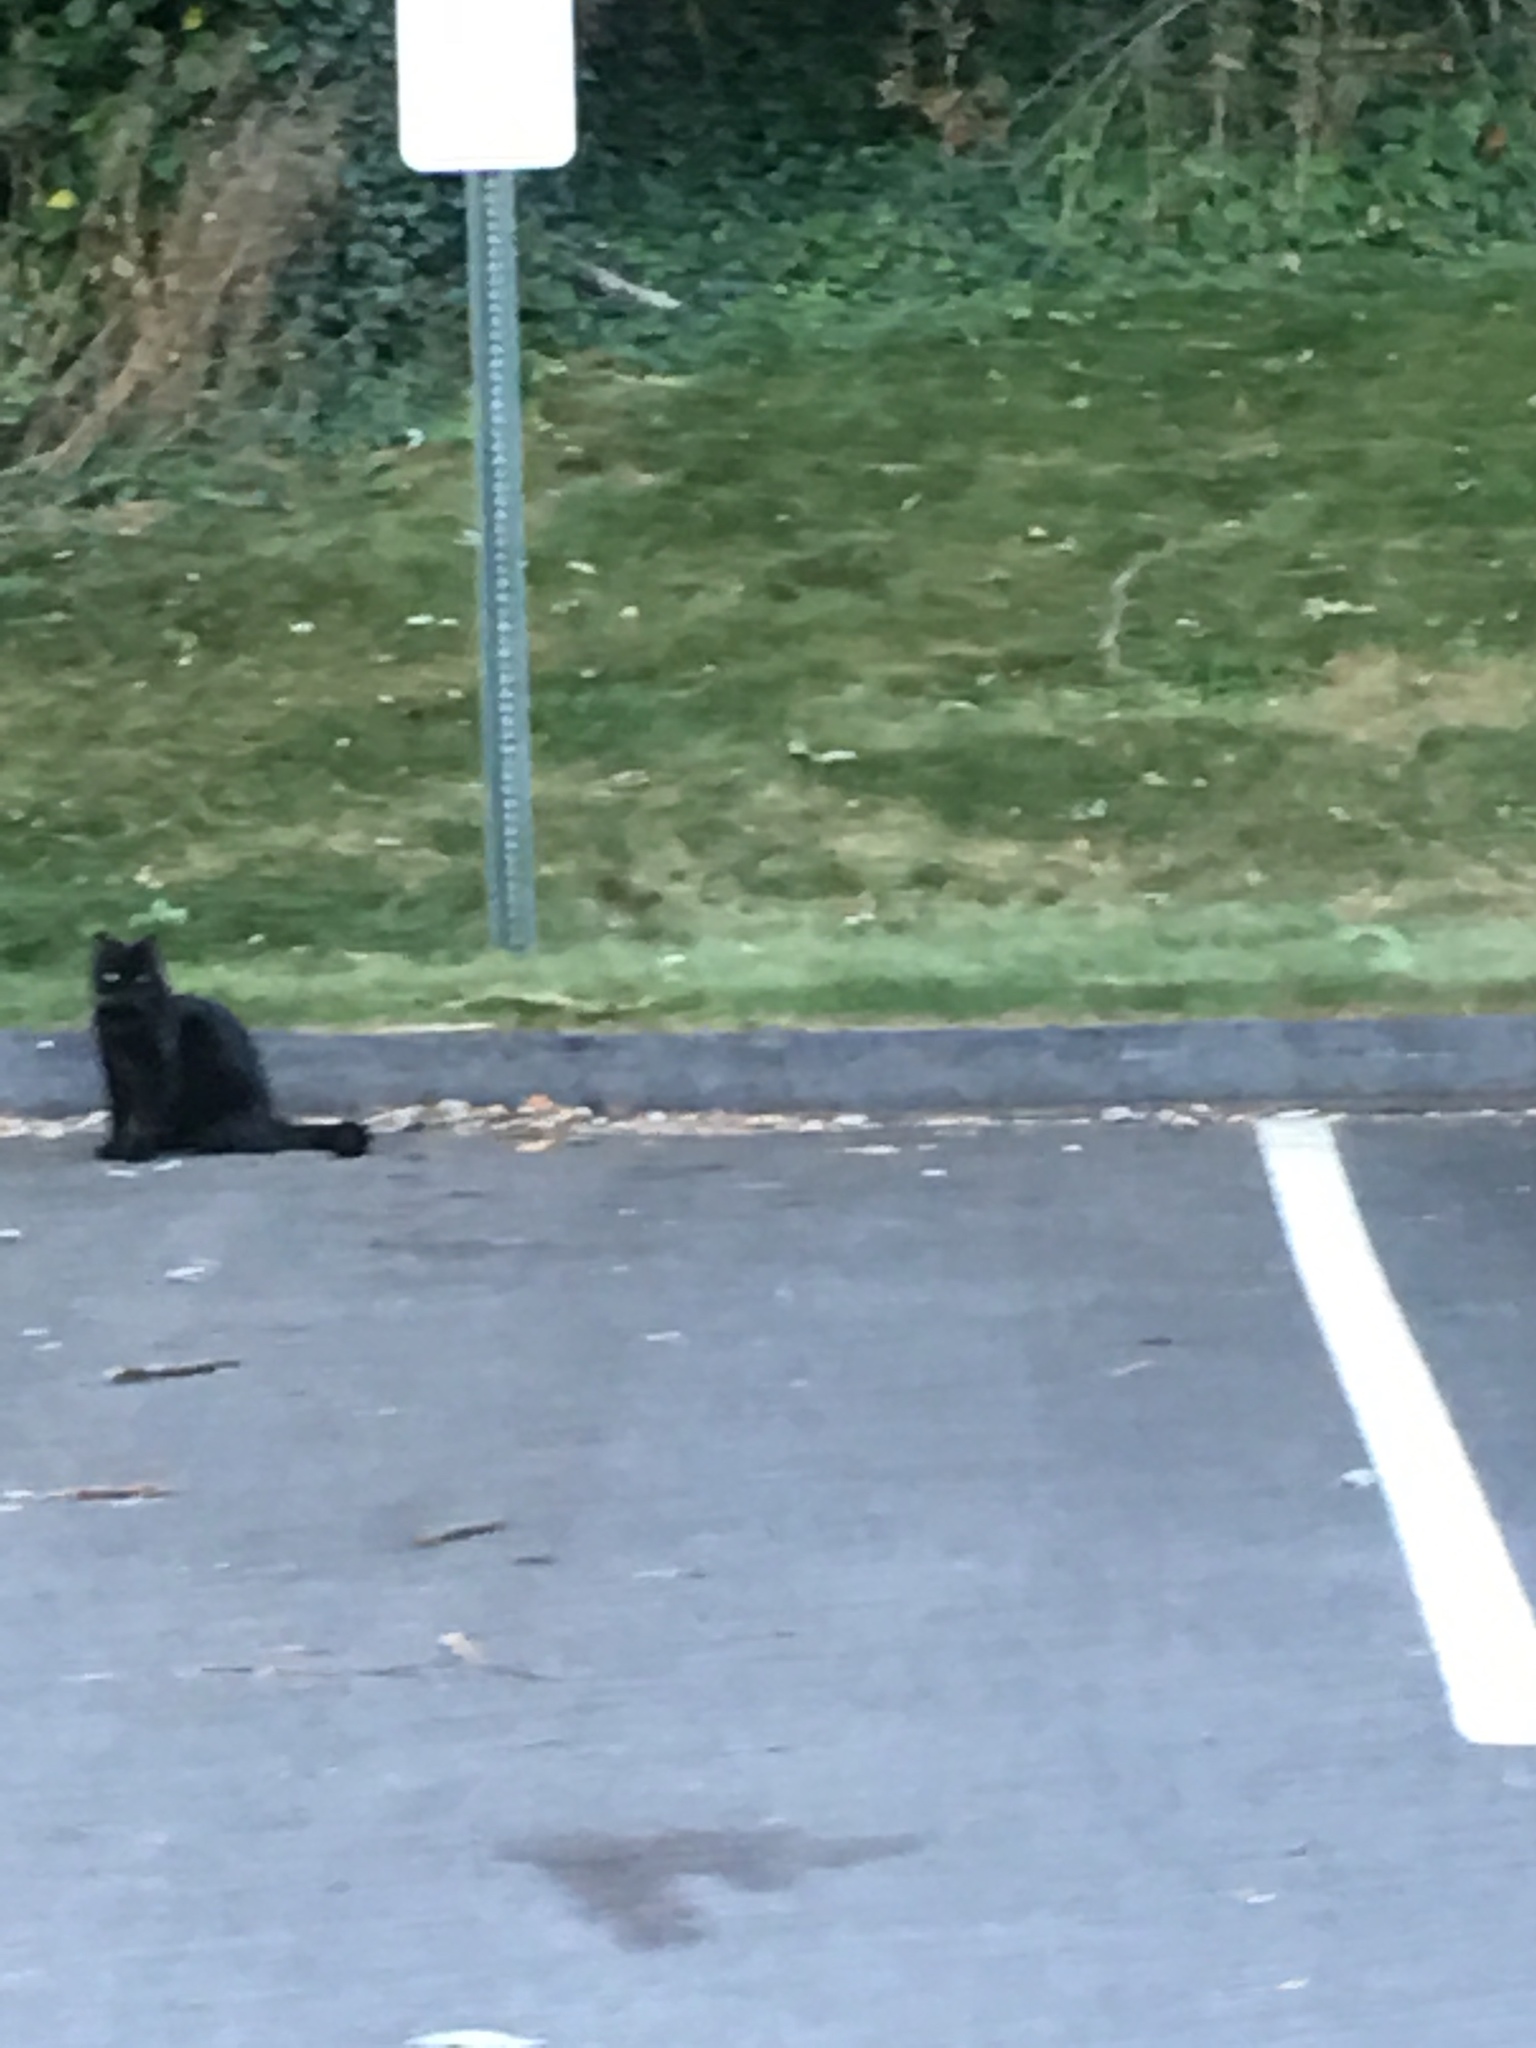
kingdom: Animalia
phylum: Chordata
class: Mammalia
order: Carnivora
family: Felidae
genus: Felis
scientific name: Felis catus
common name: Domestic cat
